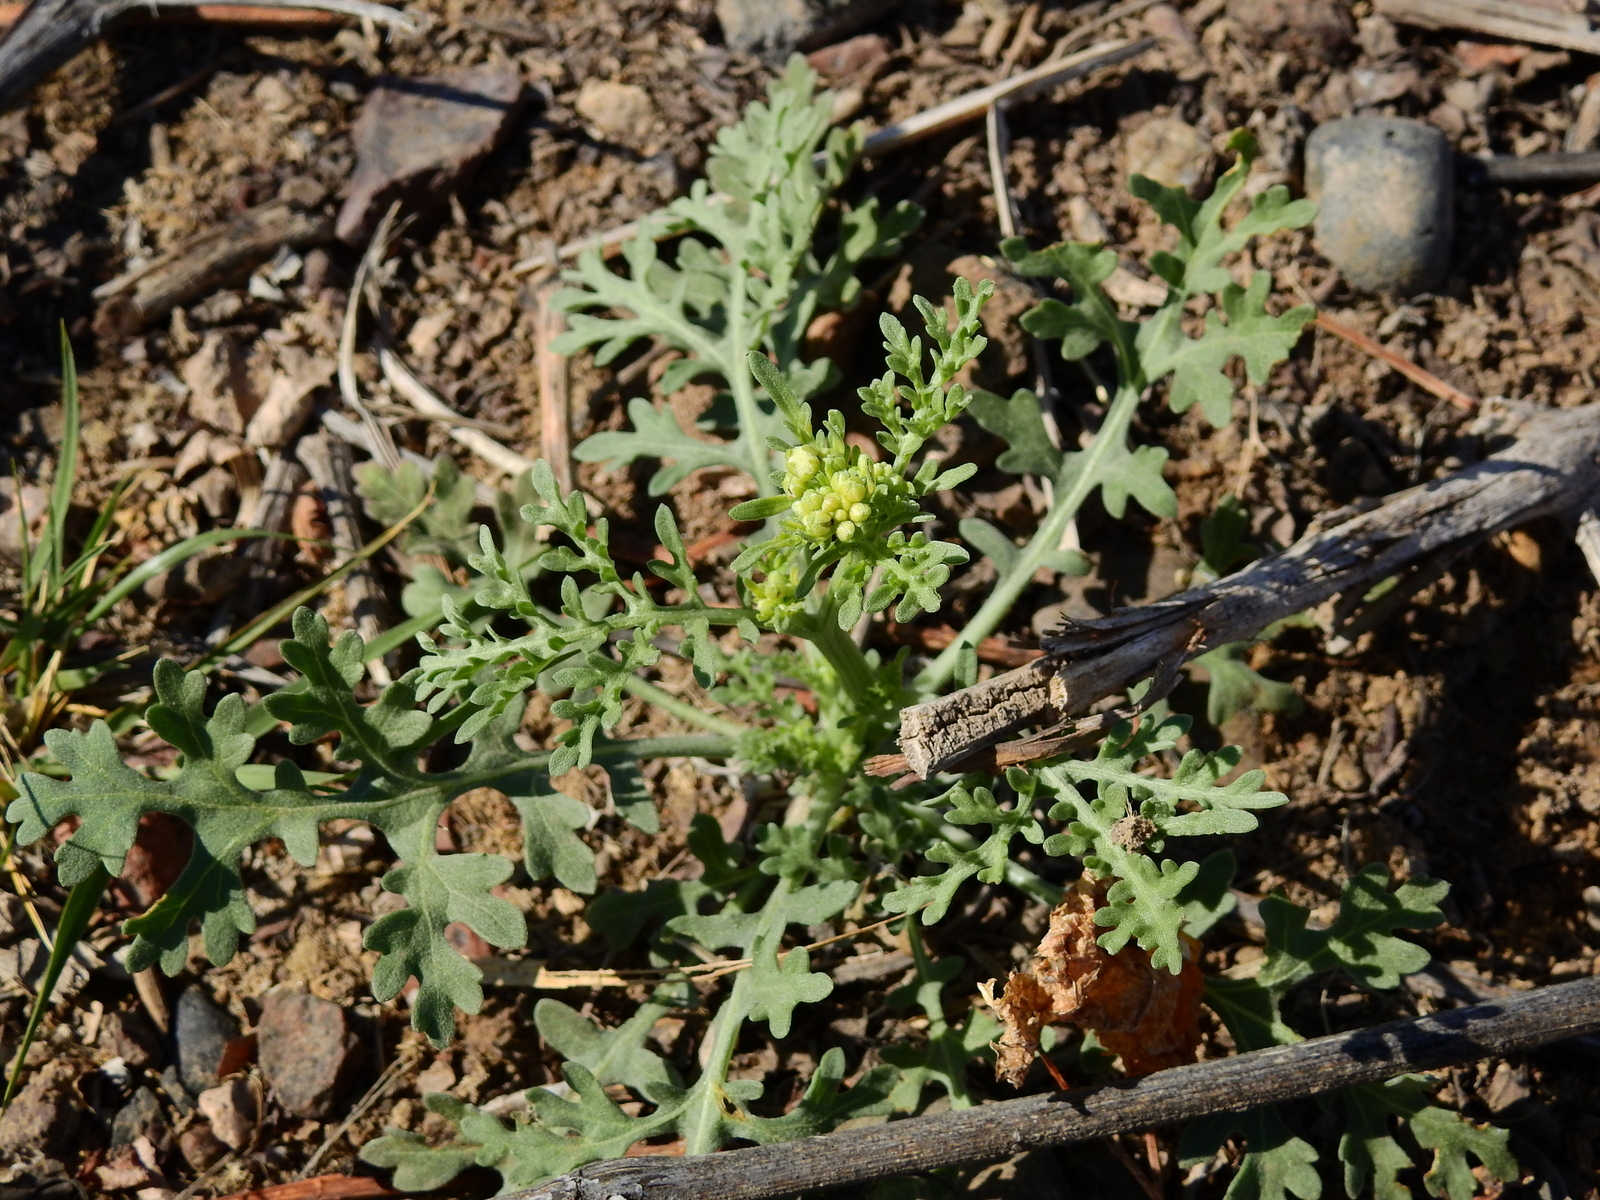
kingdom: Plantae
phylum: Tracheophyta
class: Magnoliopsida
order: Asterales
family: Asteraceae
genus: Parthenium
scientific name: Parthenium hysterophorus
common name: Santa maria feverfew
